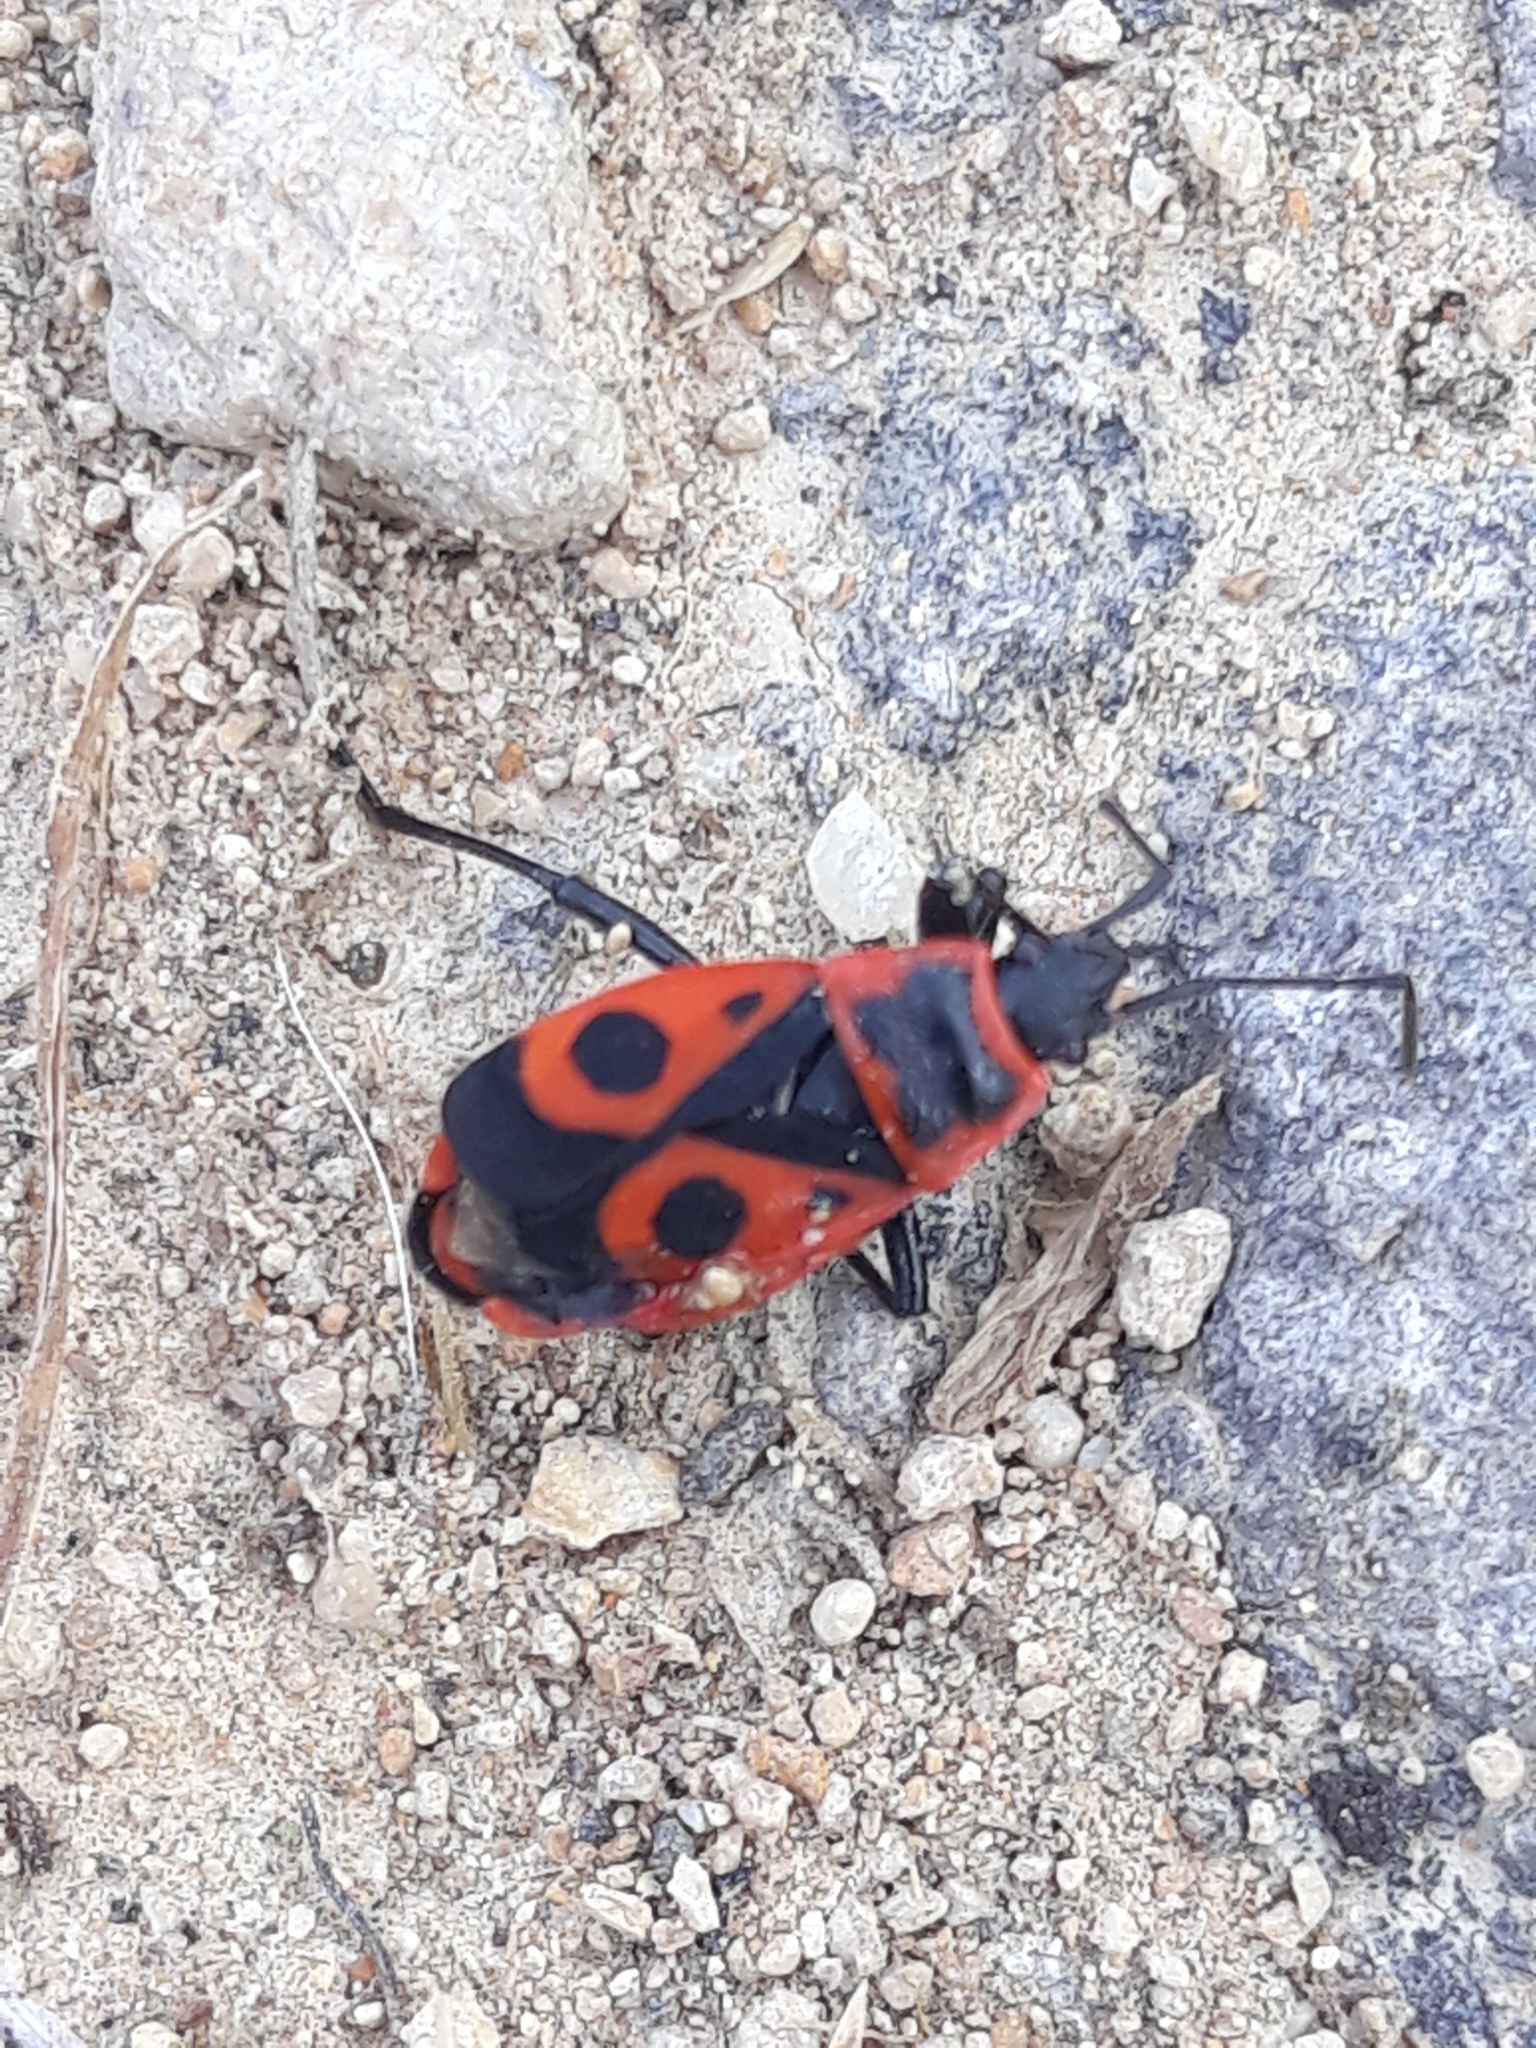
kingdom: Animalia
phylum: Arthropoda
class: Insecta
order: Hemiptera
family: Pyrrhocoridae
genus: Pyrrhocoris
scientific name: Pyrrhocoris apterus
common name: Firebug
